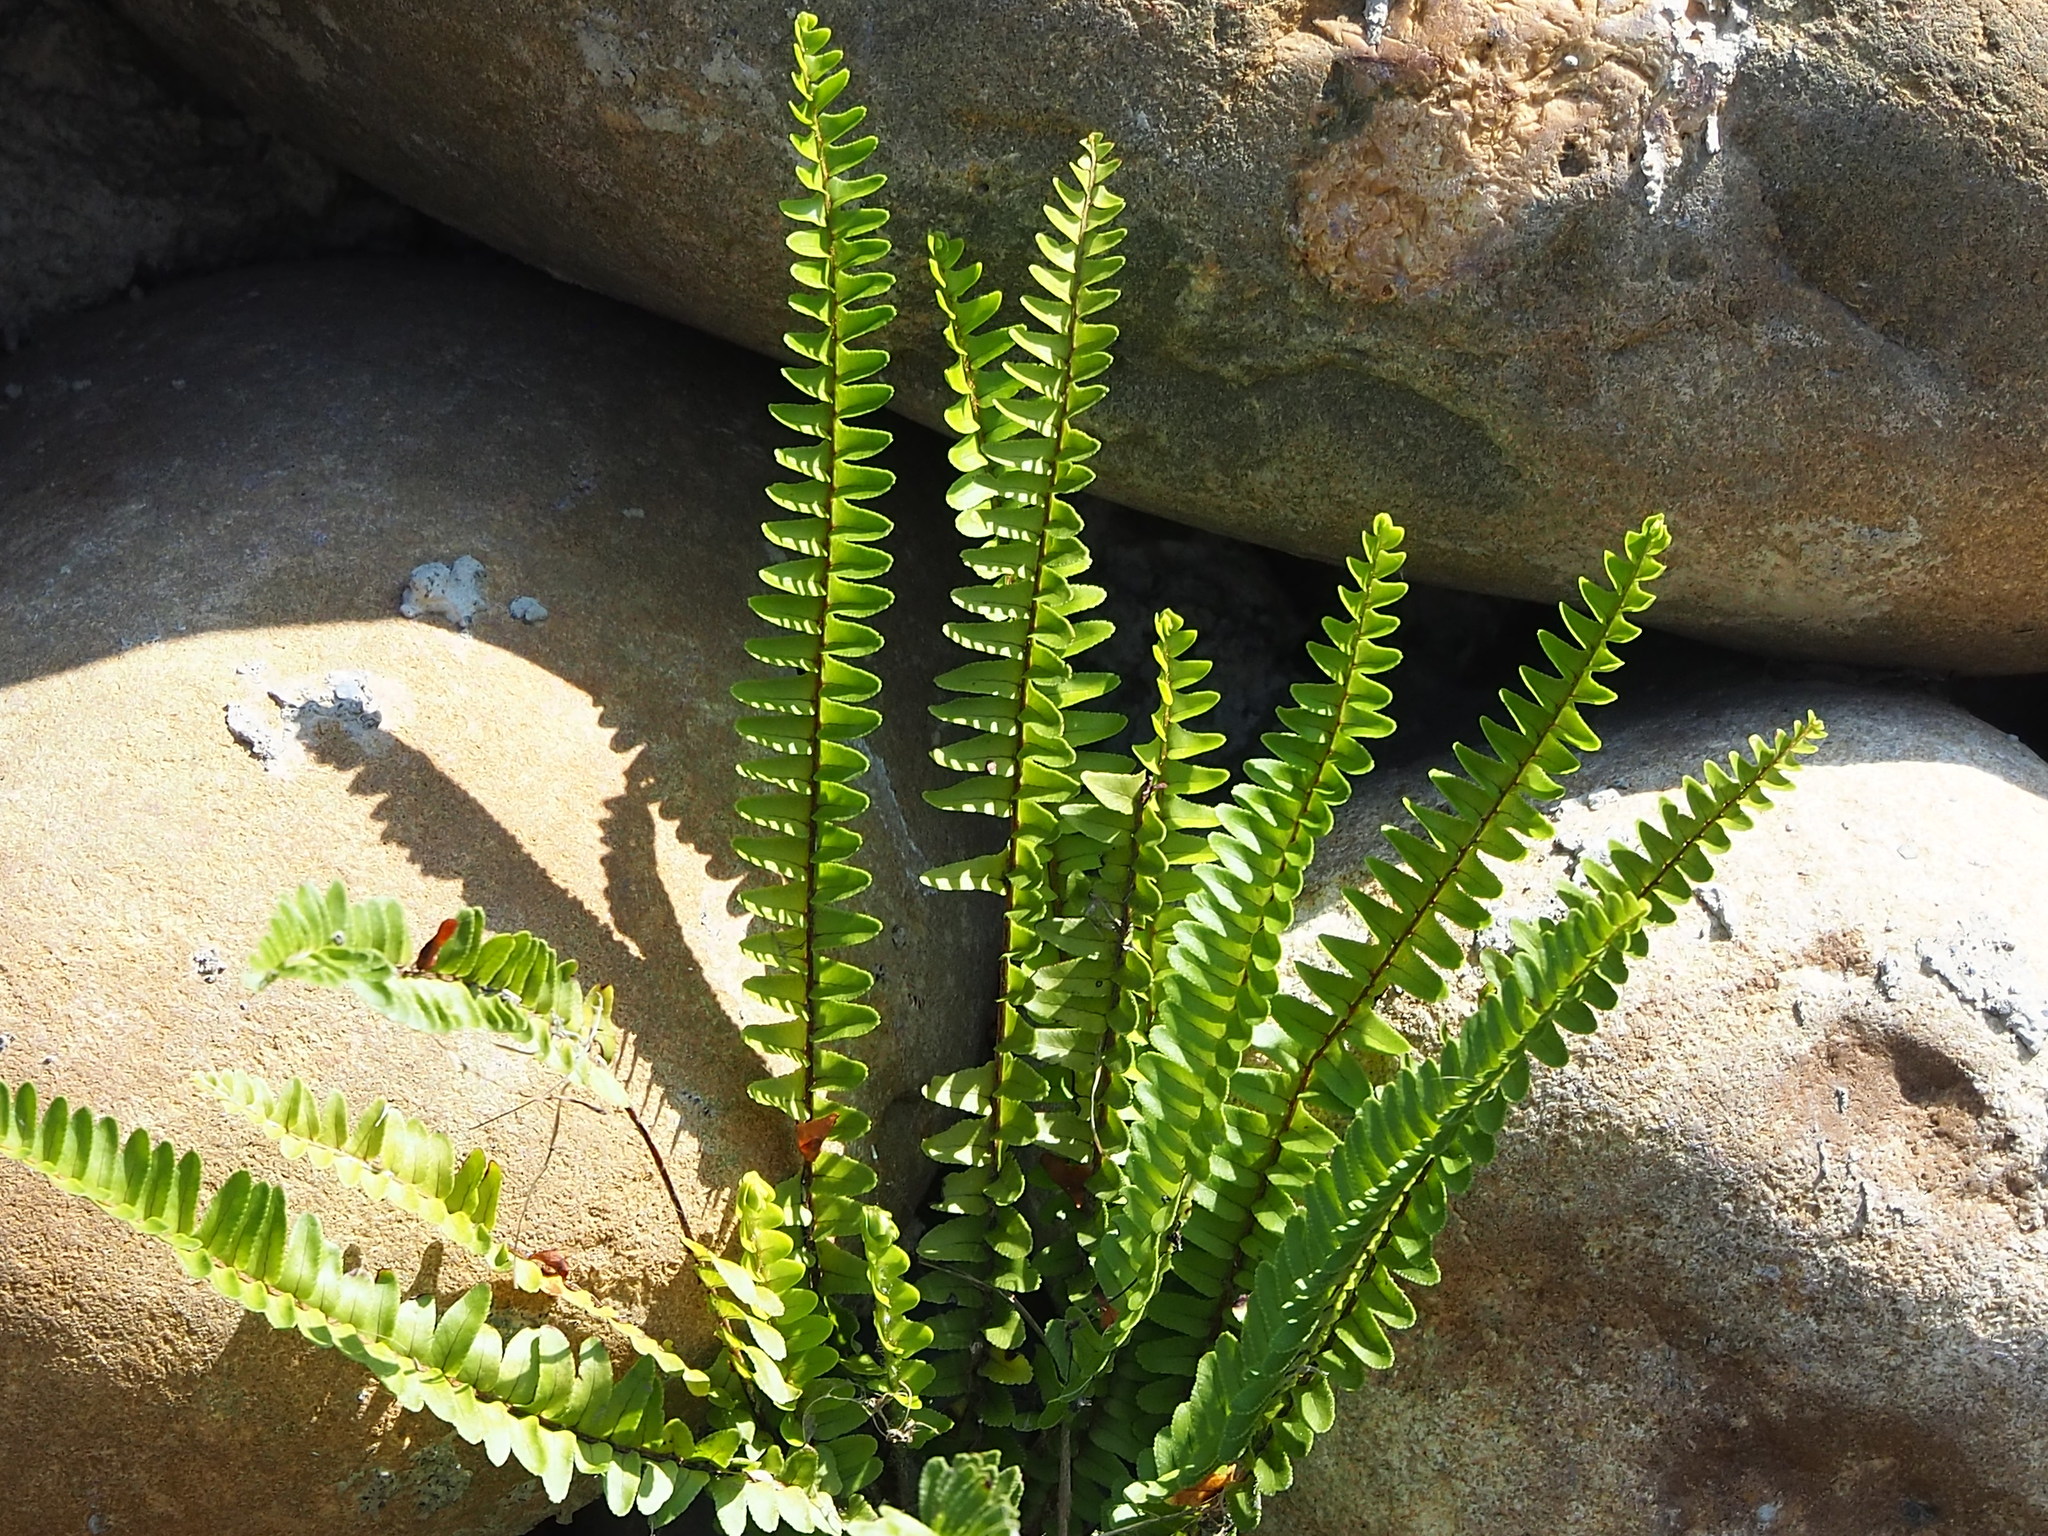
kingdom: Plantae
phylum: Tracheophyta
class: Polypodiopsida
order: Polypodiales
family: Nephrolepidaceae
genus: Nephrolepis
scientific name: Nephrolepis cordifolia
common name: Narrow swordfern
